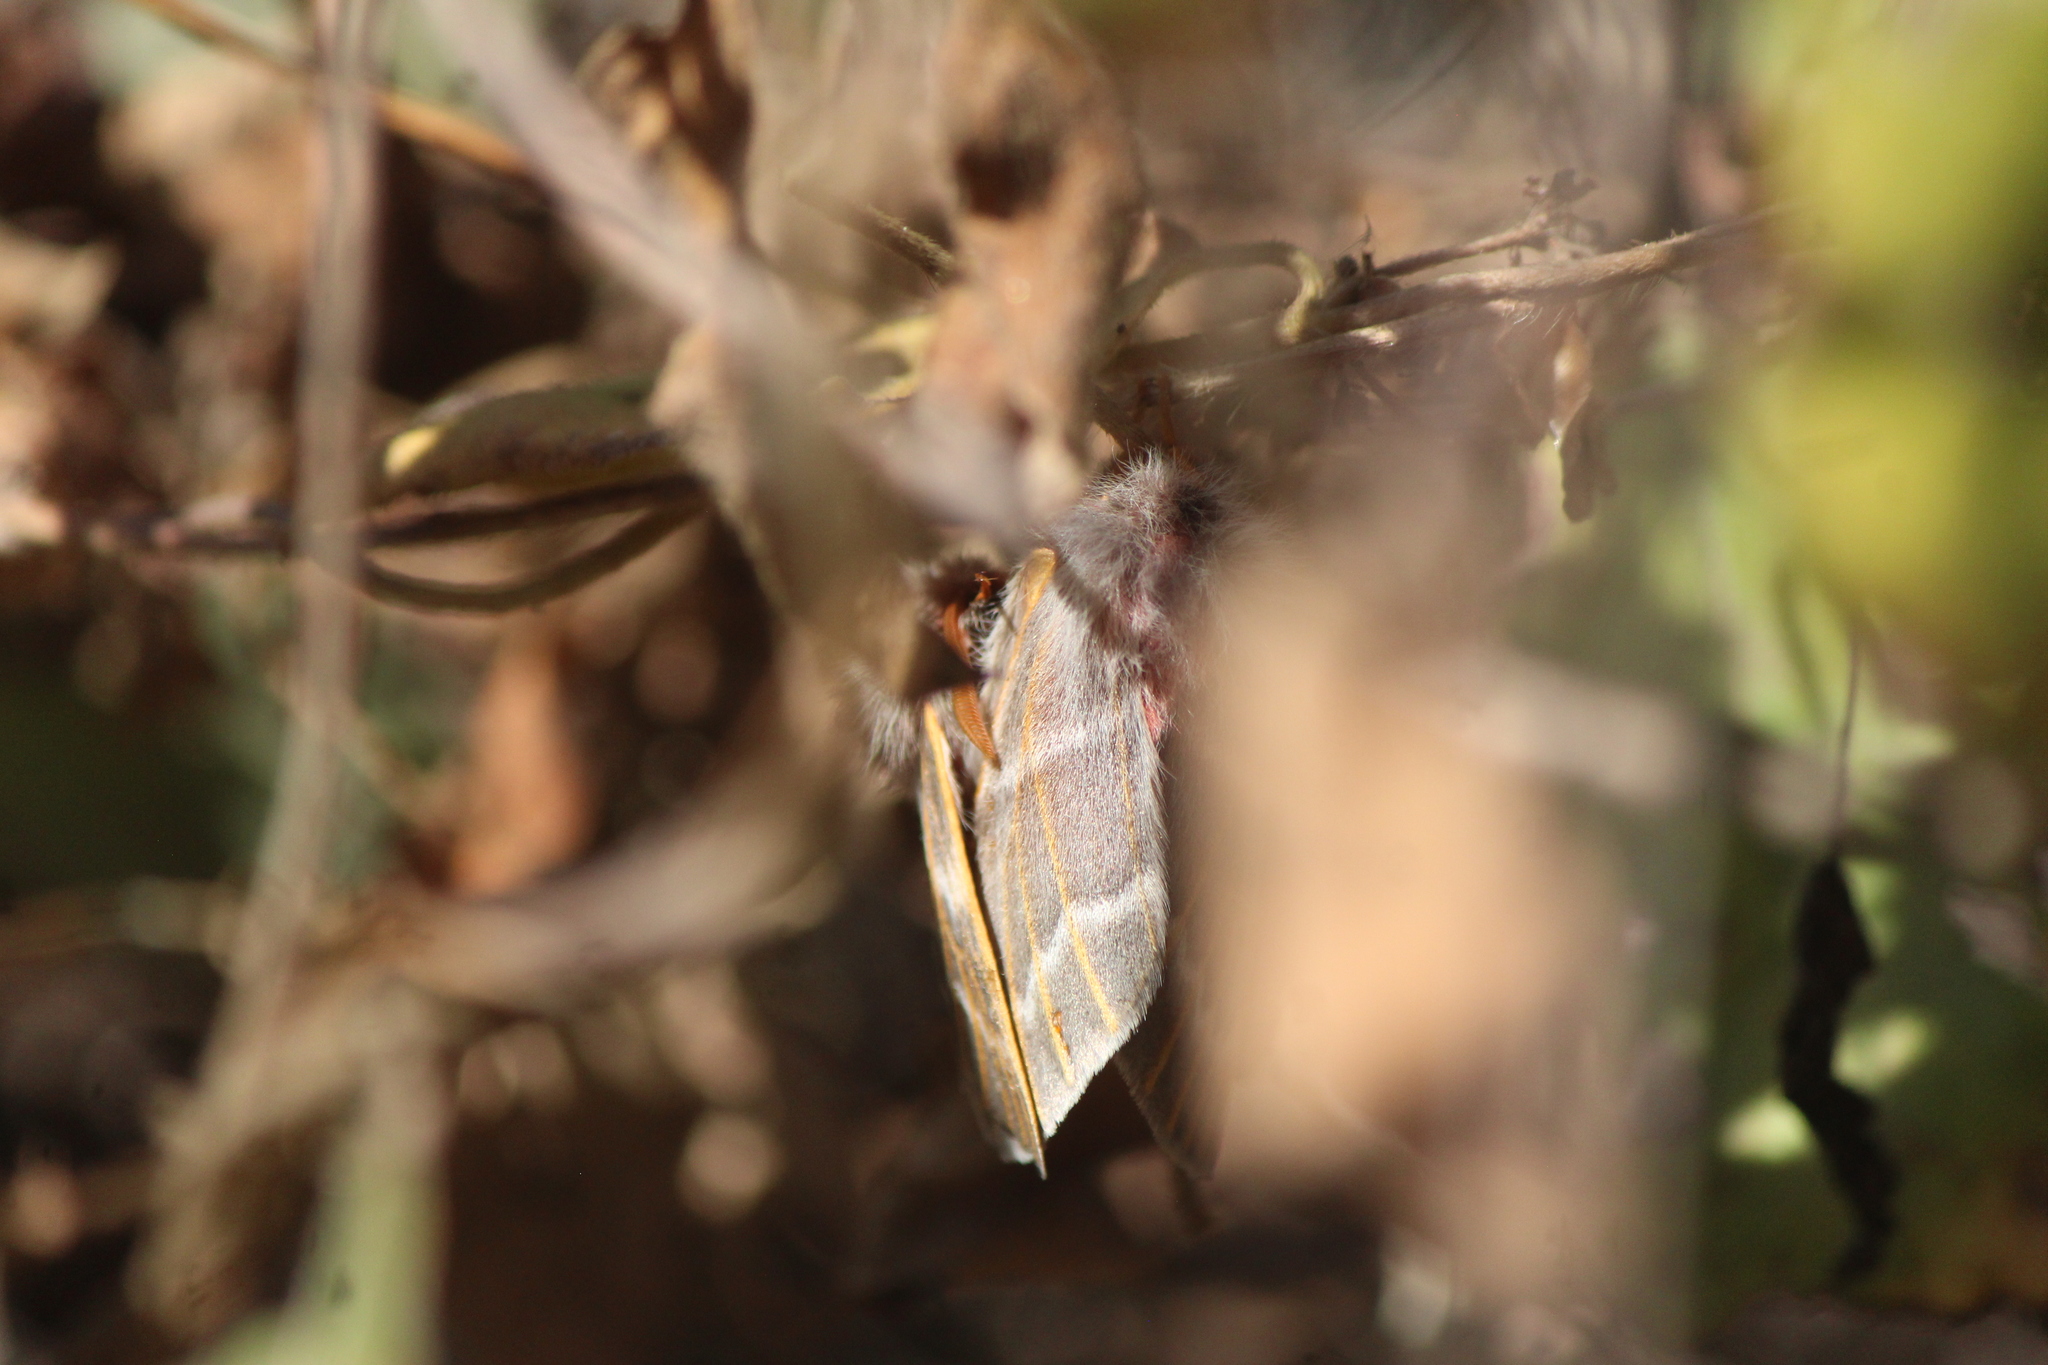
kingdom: Animalia
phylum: Arthropoda
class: Insecta
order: Lepidoptera
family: Saturniidae
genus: Hemileuca
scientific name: Hemileuca rubridorsa
